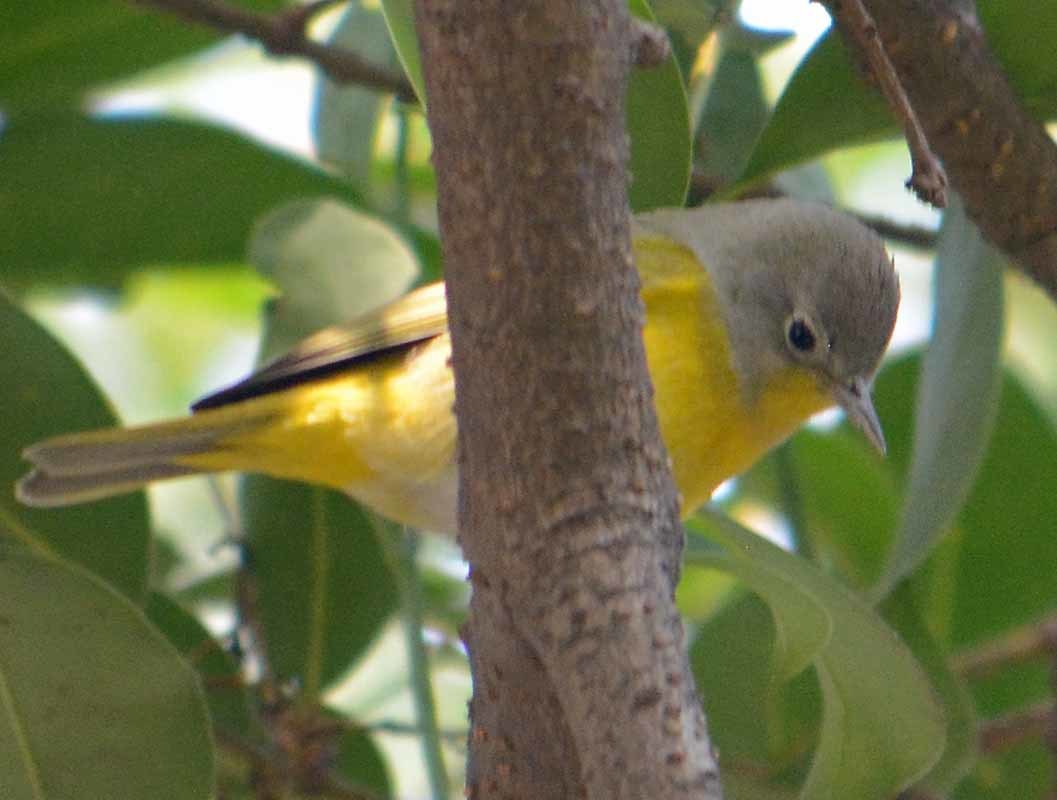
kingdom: Animalia
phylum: Chordata
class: Aves
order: Passeriformes
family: Parulidae
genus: Leiothlypis
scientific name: Leiothlypis ruficapilla
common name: Nashville warbler
